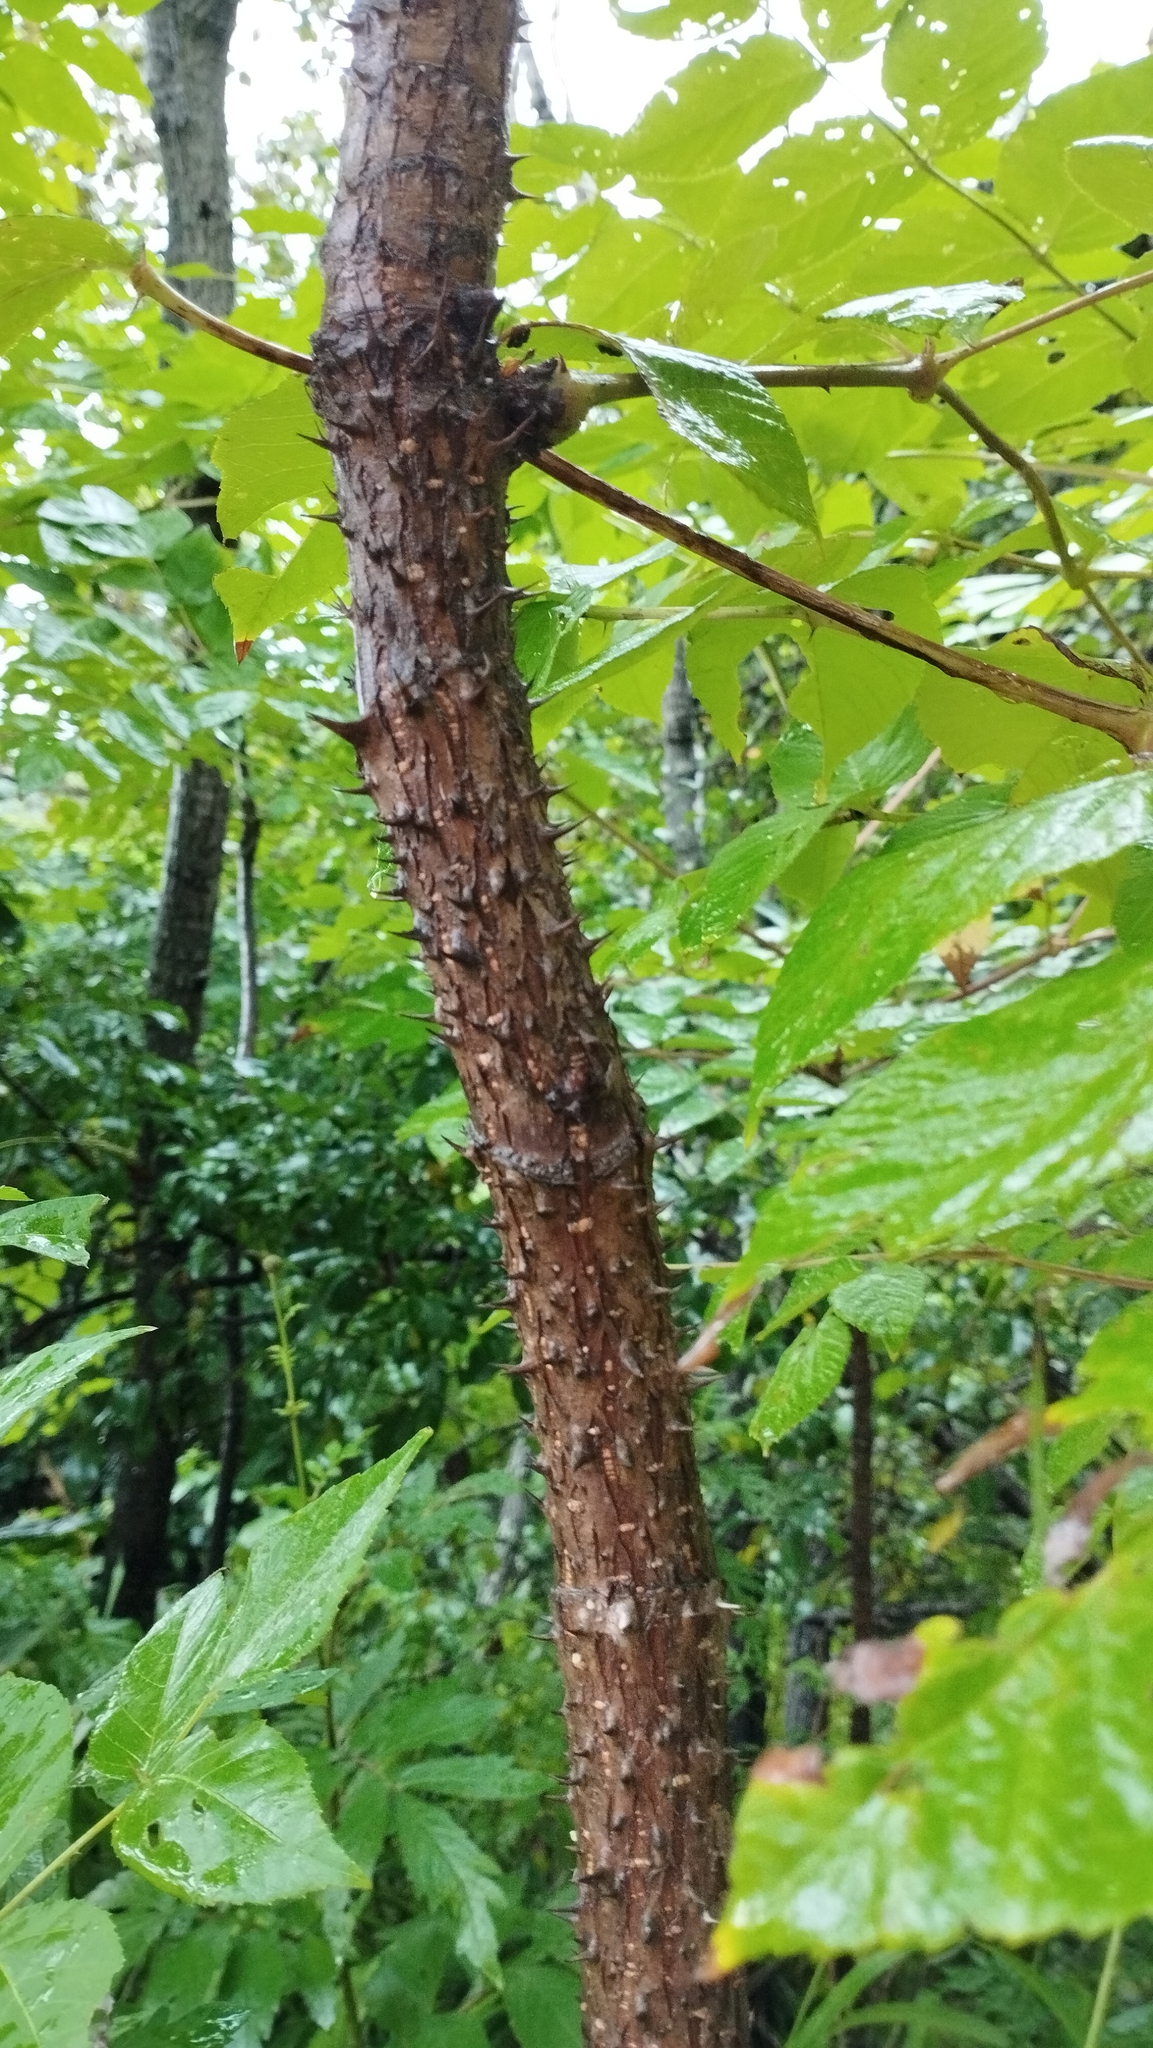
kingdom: Plantae
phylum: Tracheophyta
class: Magnoliopsida
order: Apiales
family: Araliaceae
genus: Aralia
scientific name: Aralia elata
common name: Japanese angelica-tree
